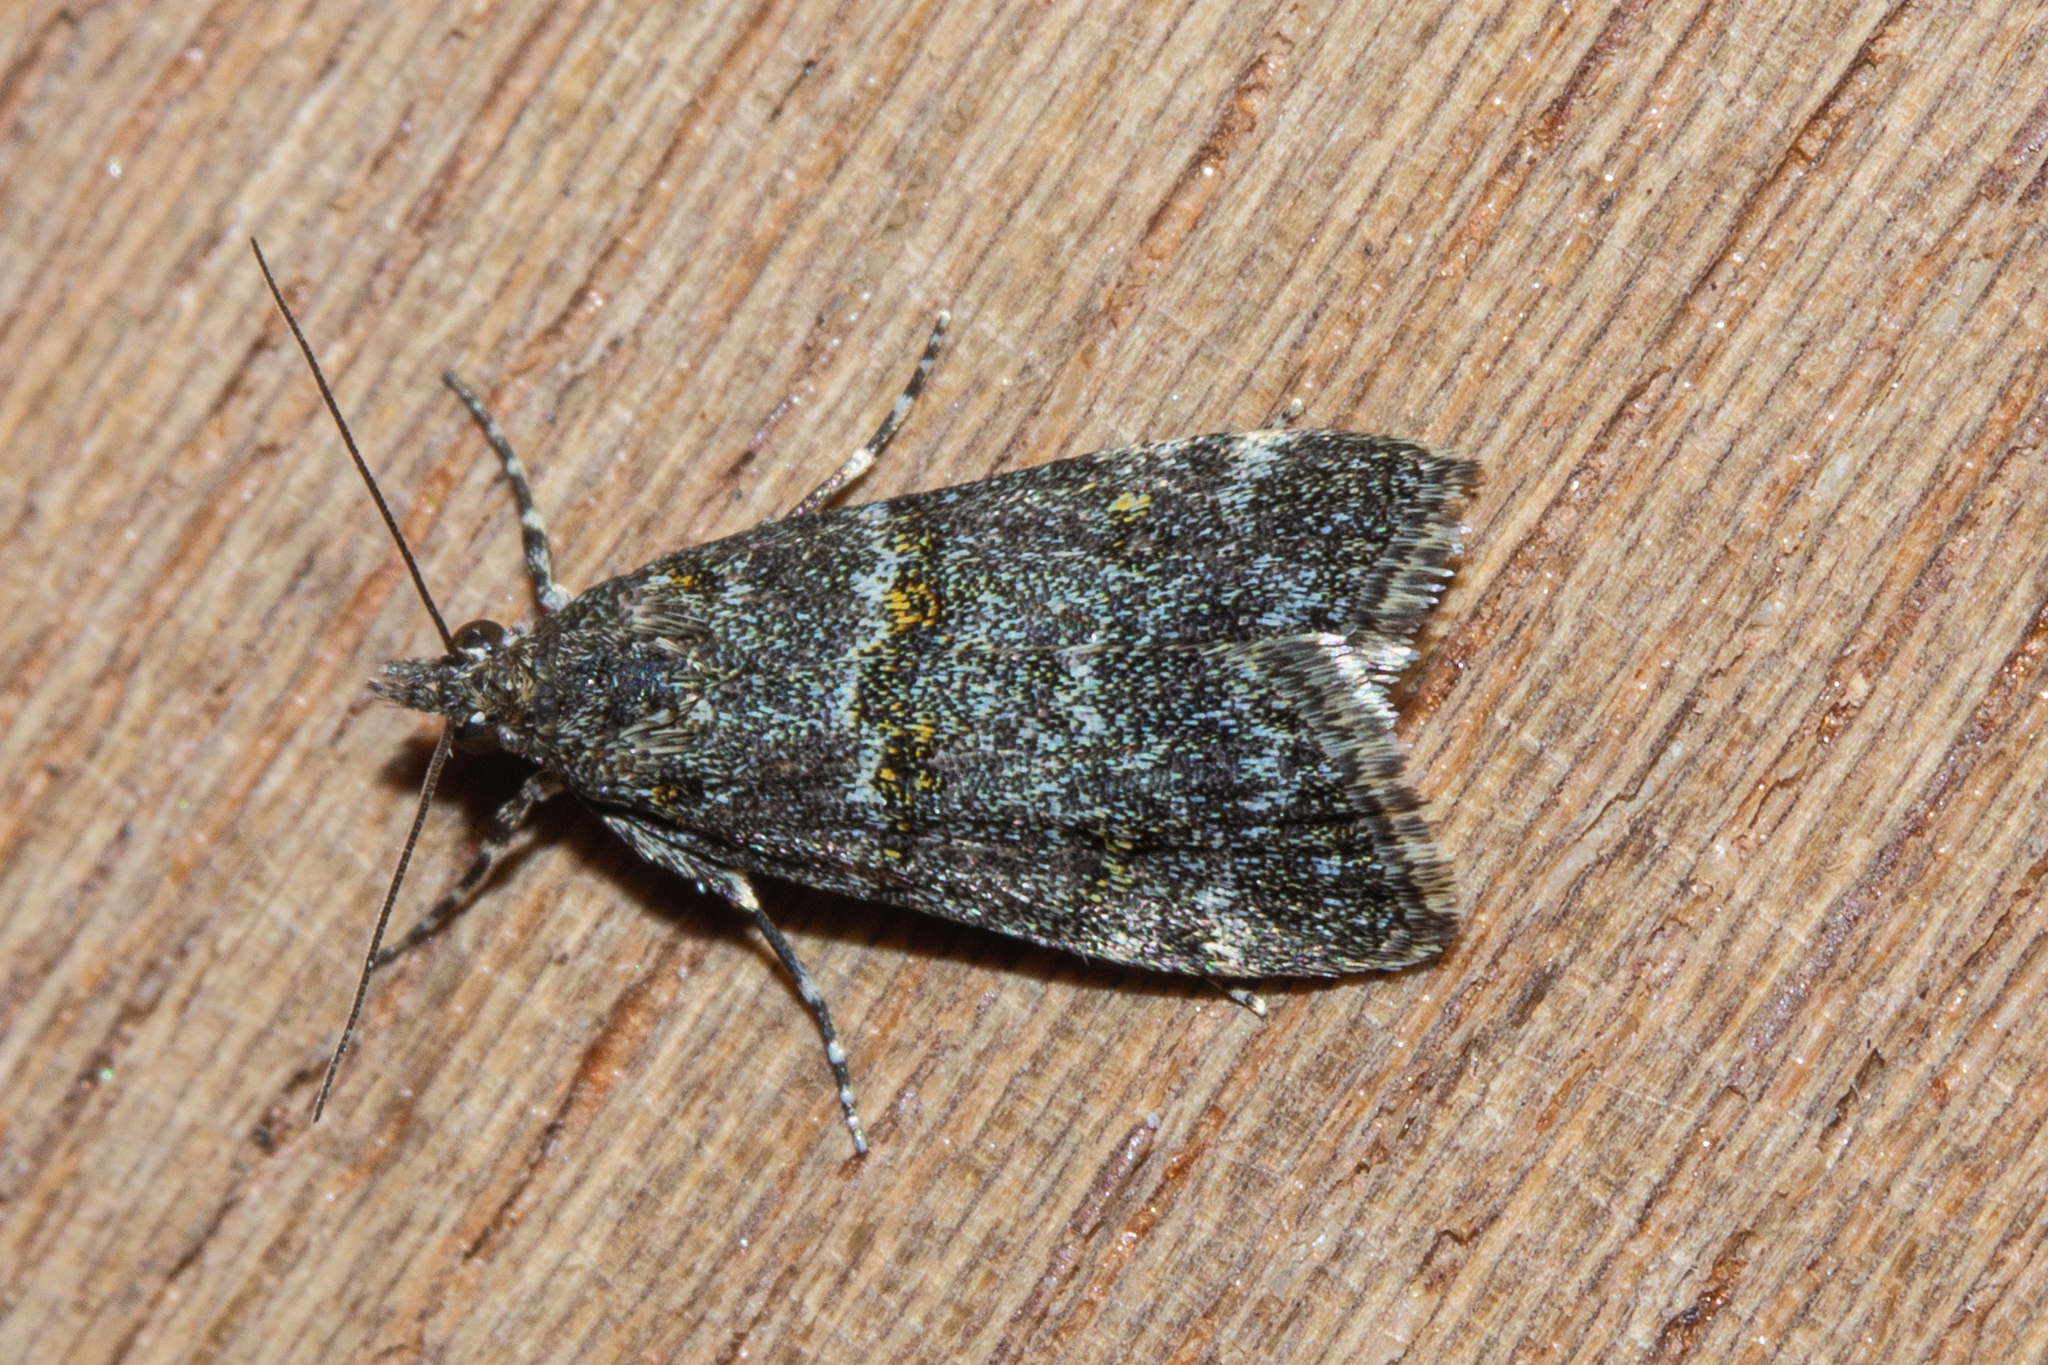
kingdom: Animalia
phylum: Arthropoda
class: Insecta
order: Lepidoptera
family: Crambidae
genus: Eudonia
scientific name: Eudonia microphthalma
